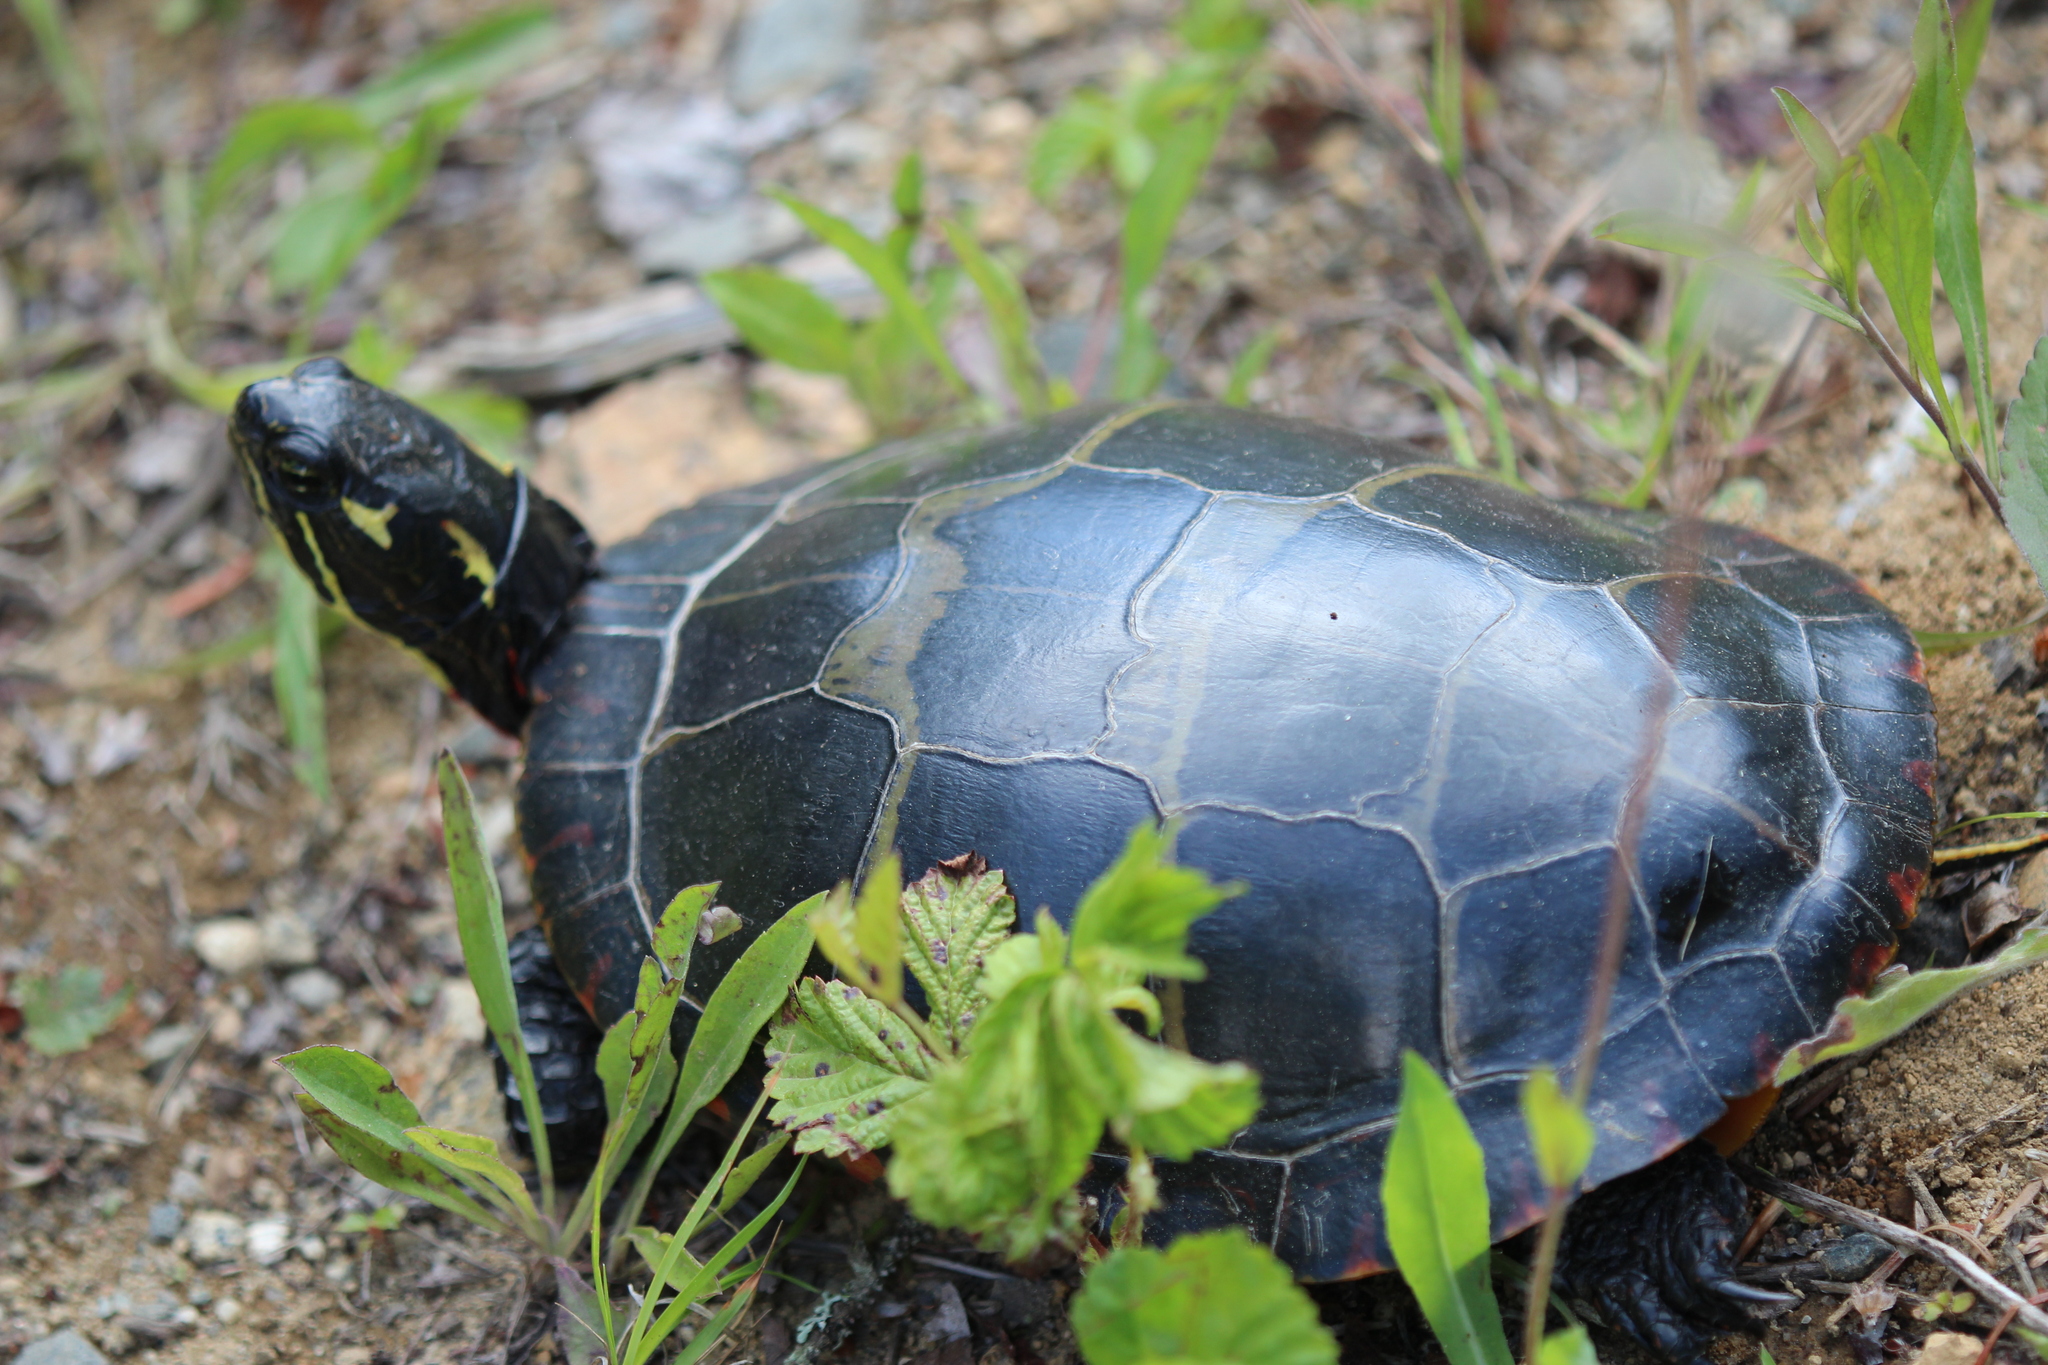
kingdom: Animalia
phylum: Chordata
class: Testudines
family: Emydidae
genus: Chrysemys
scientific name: Chrysemys picta
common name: Painted turtle
